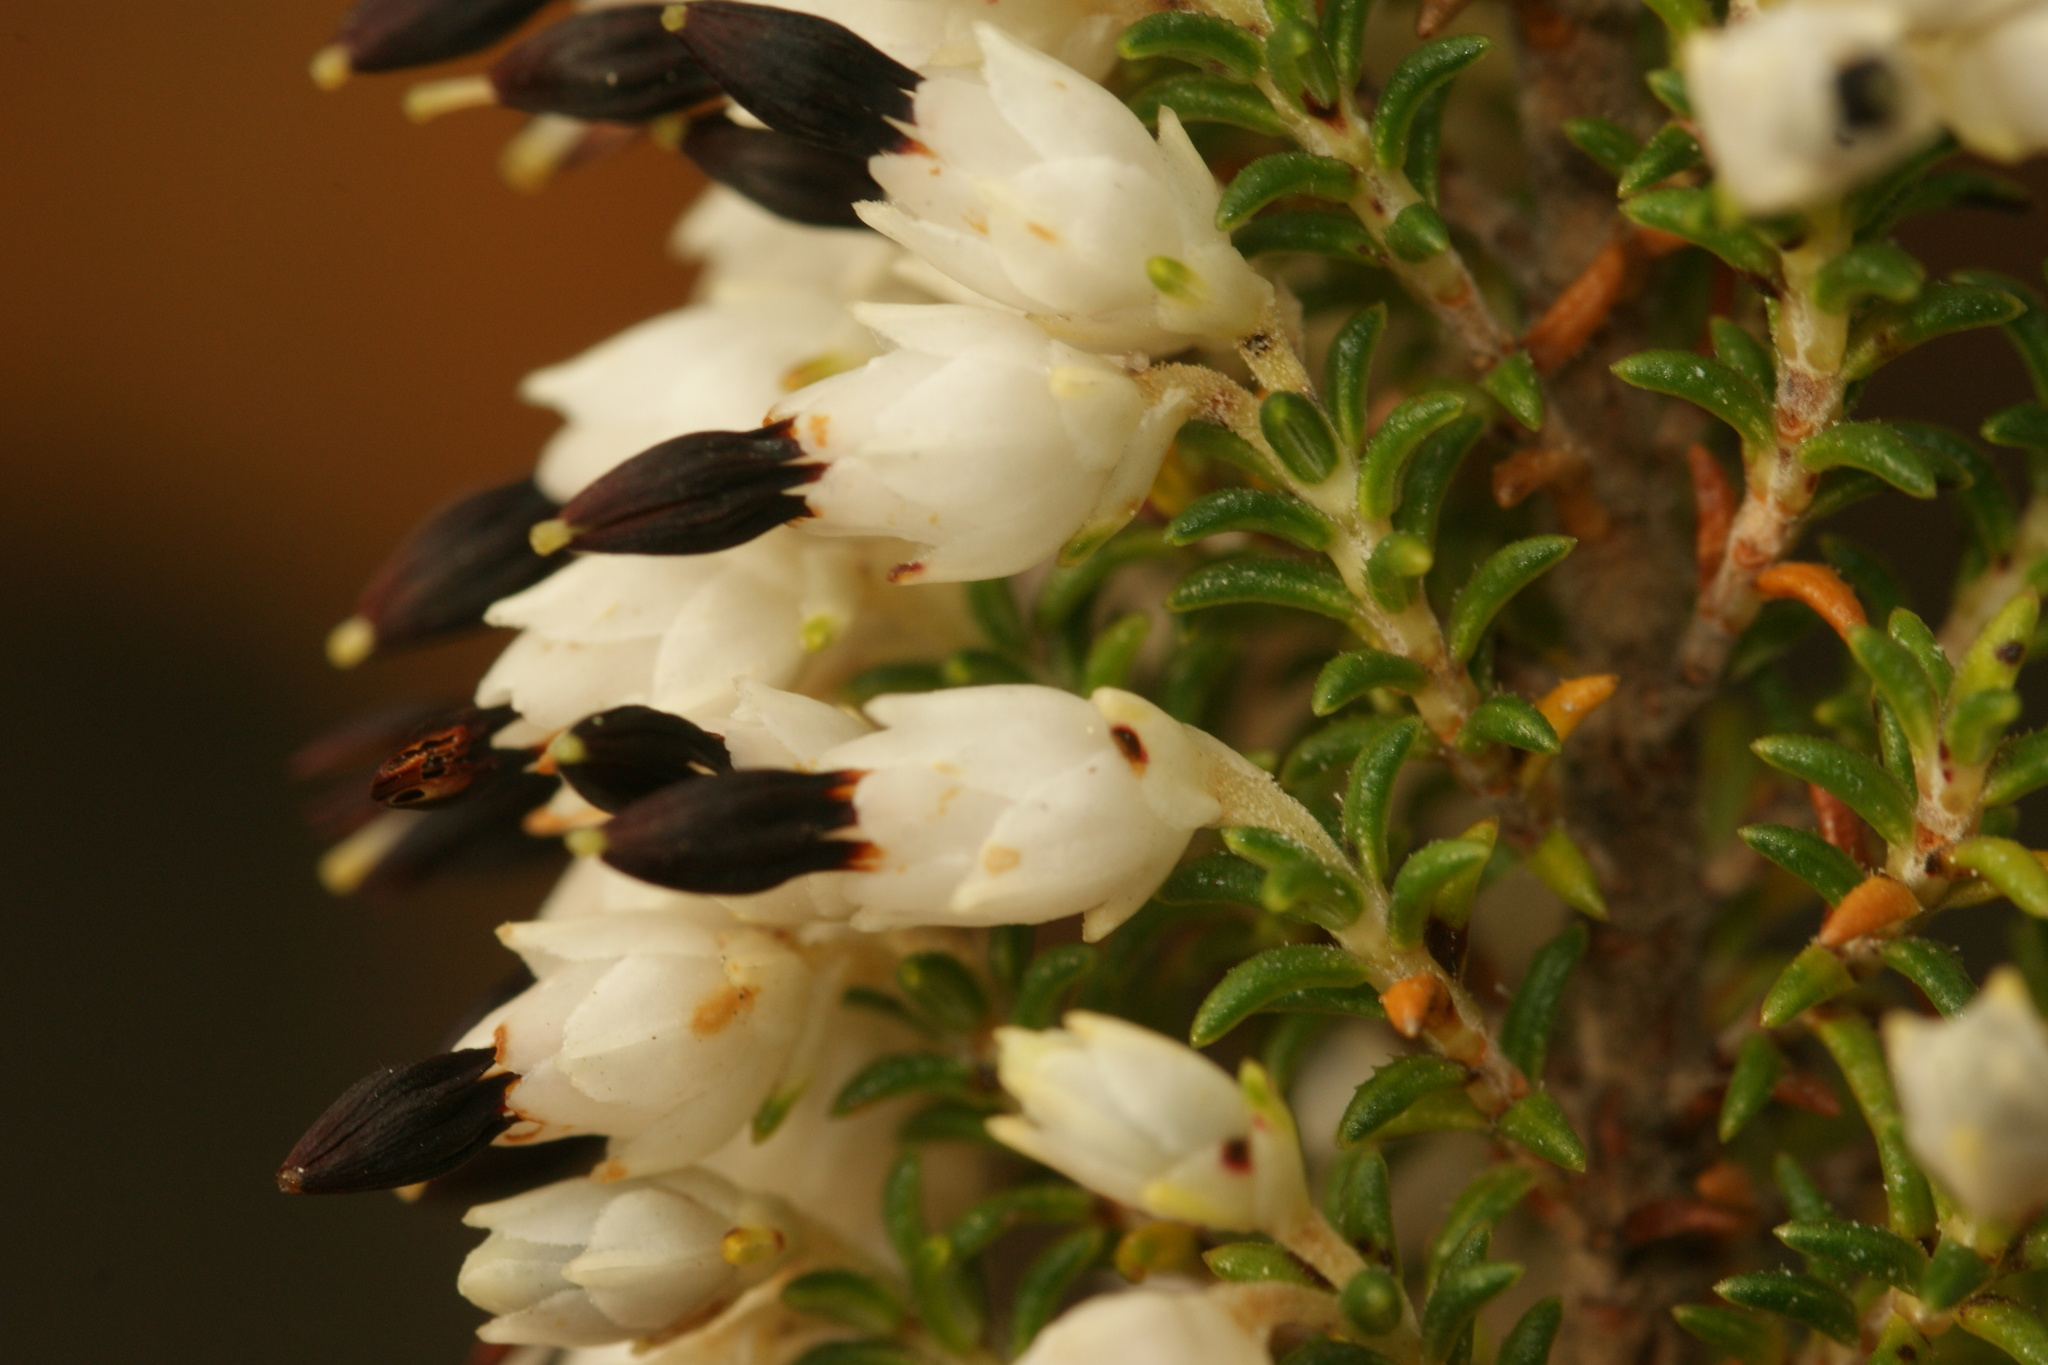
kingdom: Plantae
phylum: Tracheophyta
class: Magnoliopsida
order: Ericales
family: Ericaceae
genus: Erica
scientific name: Erica penicilliformis
